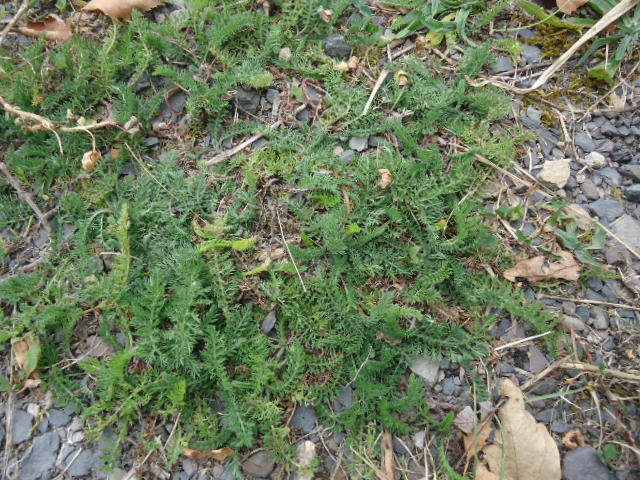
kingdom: Plantae
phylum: Tracheophyta
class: Magnoliopsida
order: Asterales
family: Asteraceae
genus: Achillea
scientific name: Achillea millefolium
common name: Yarrow
